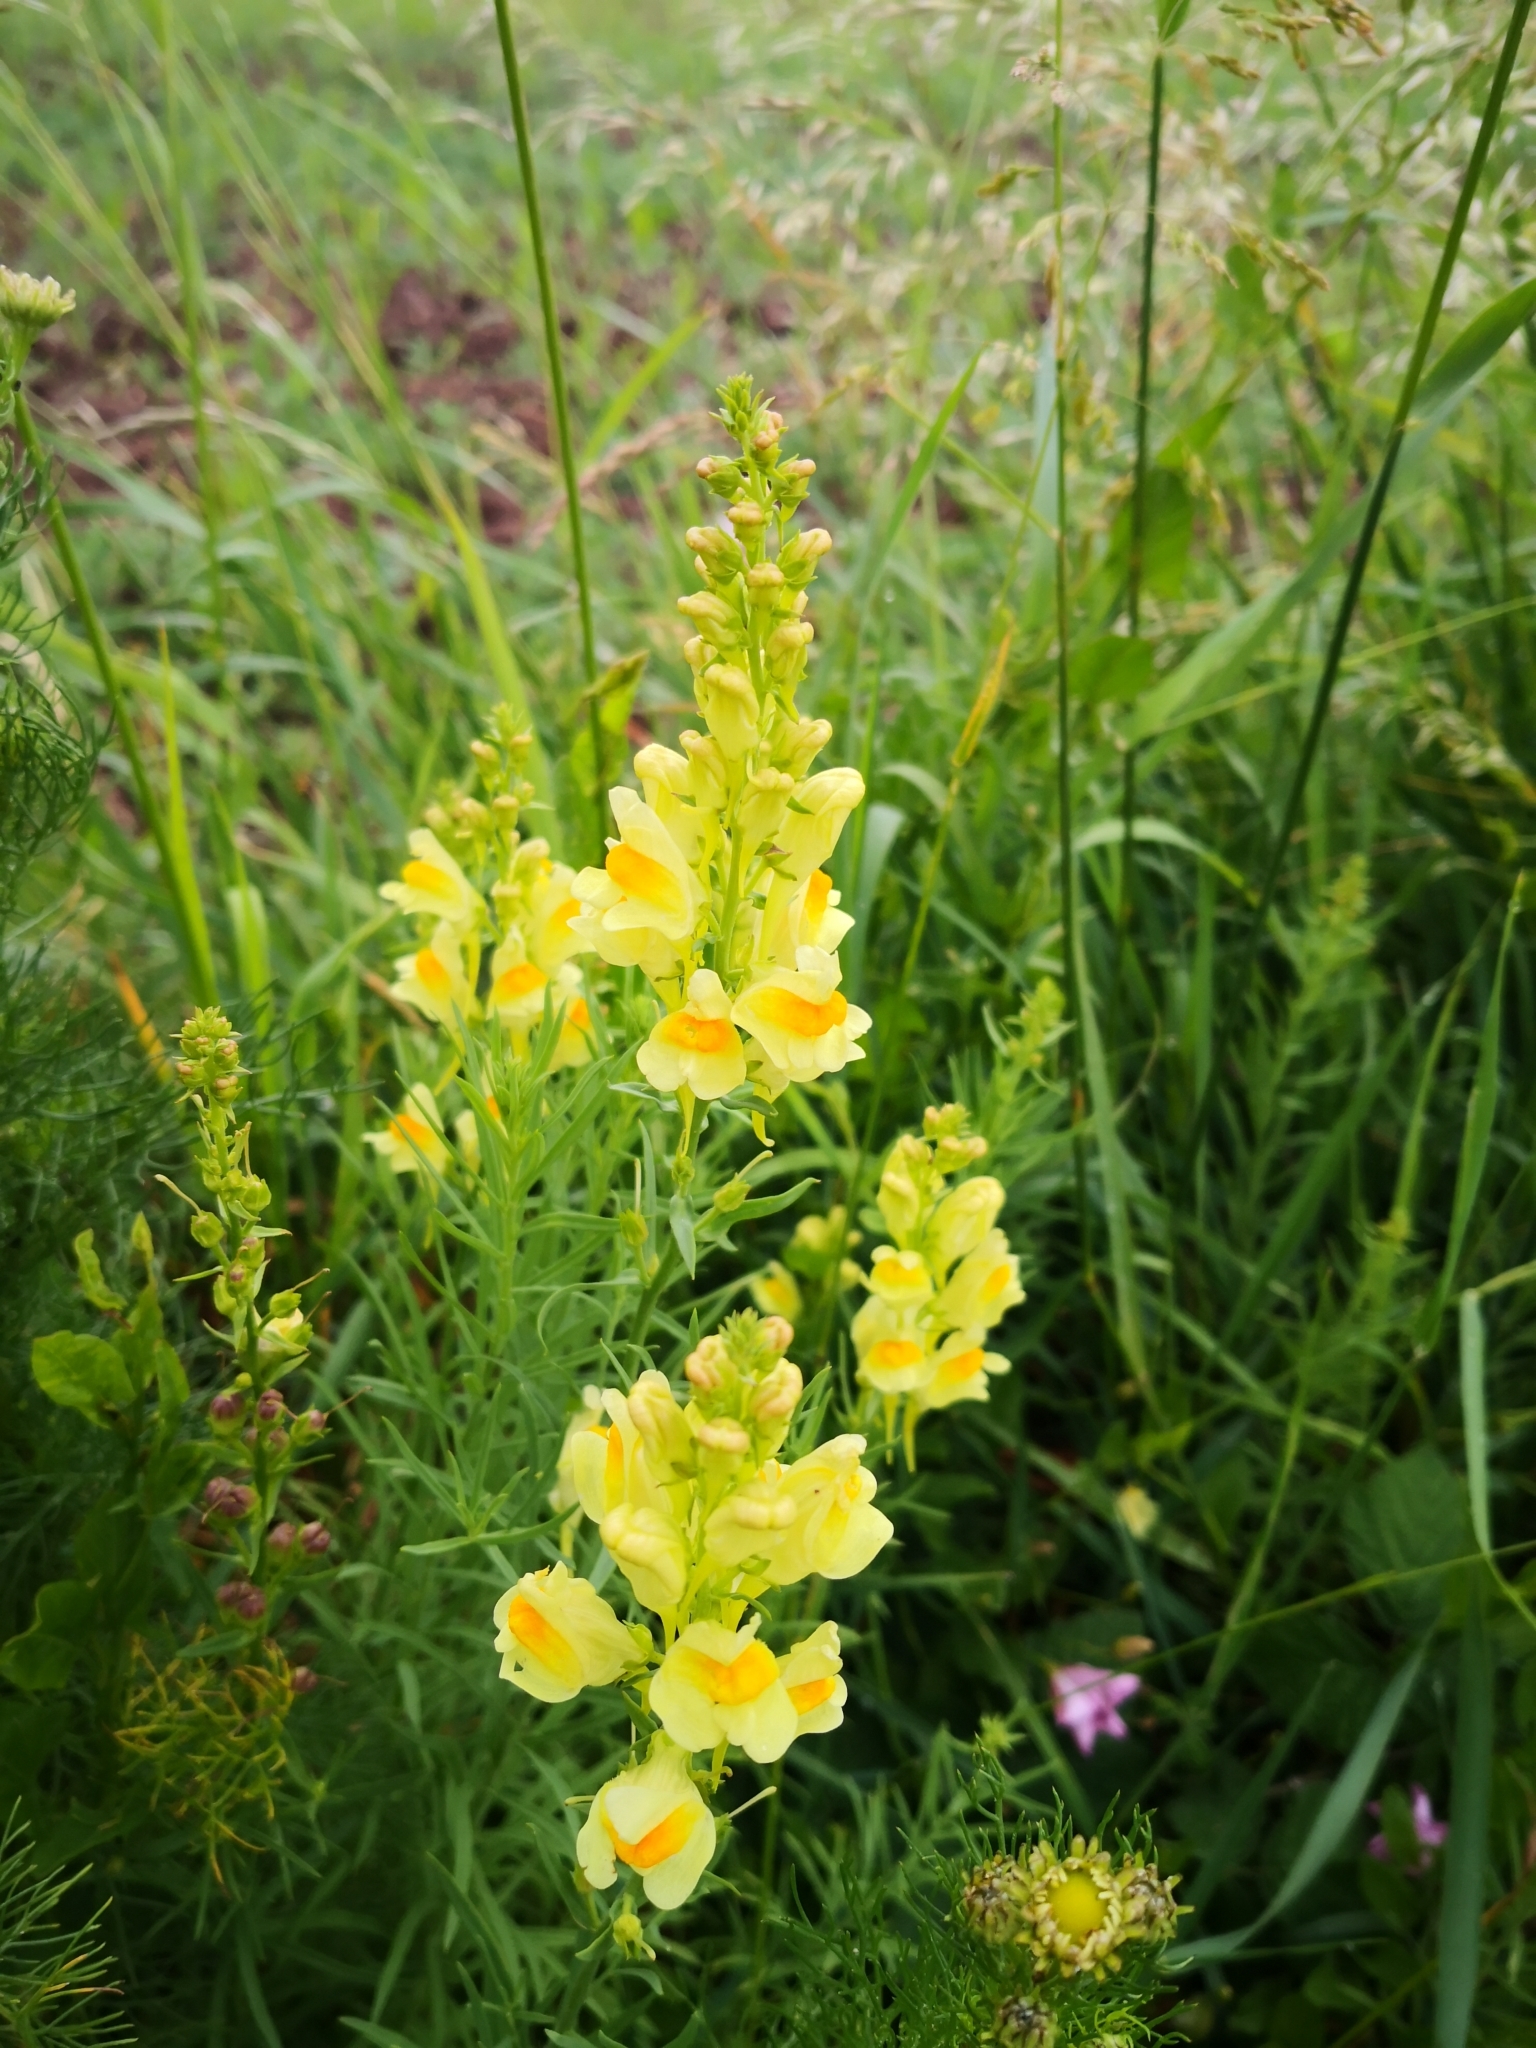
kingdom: Plantae
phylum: Tracheophyta
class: Magnoliopsida
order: Lamiales
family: Plantaginaceae
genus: Linaria
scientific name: Linaria vulgaris
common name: Butter and eggs
